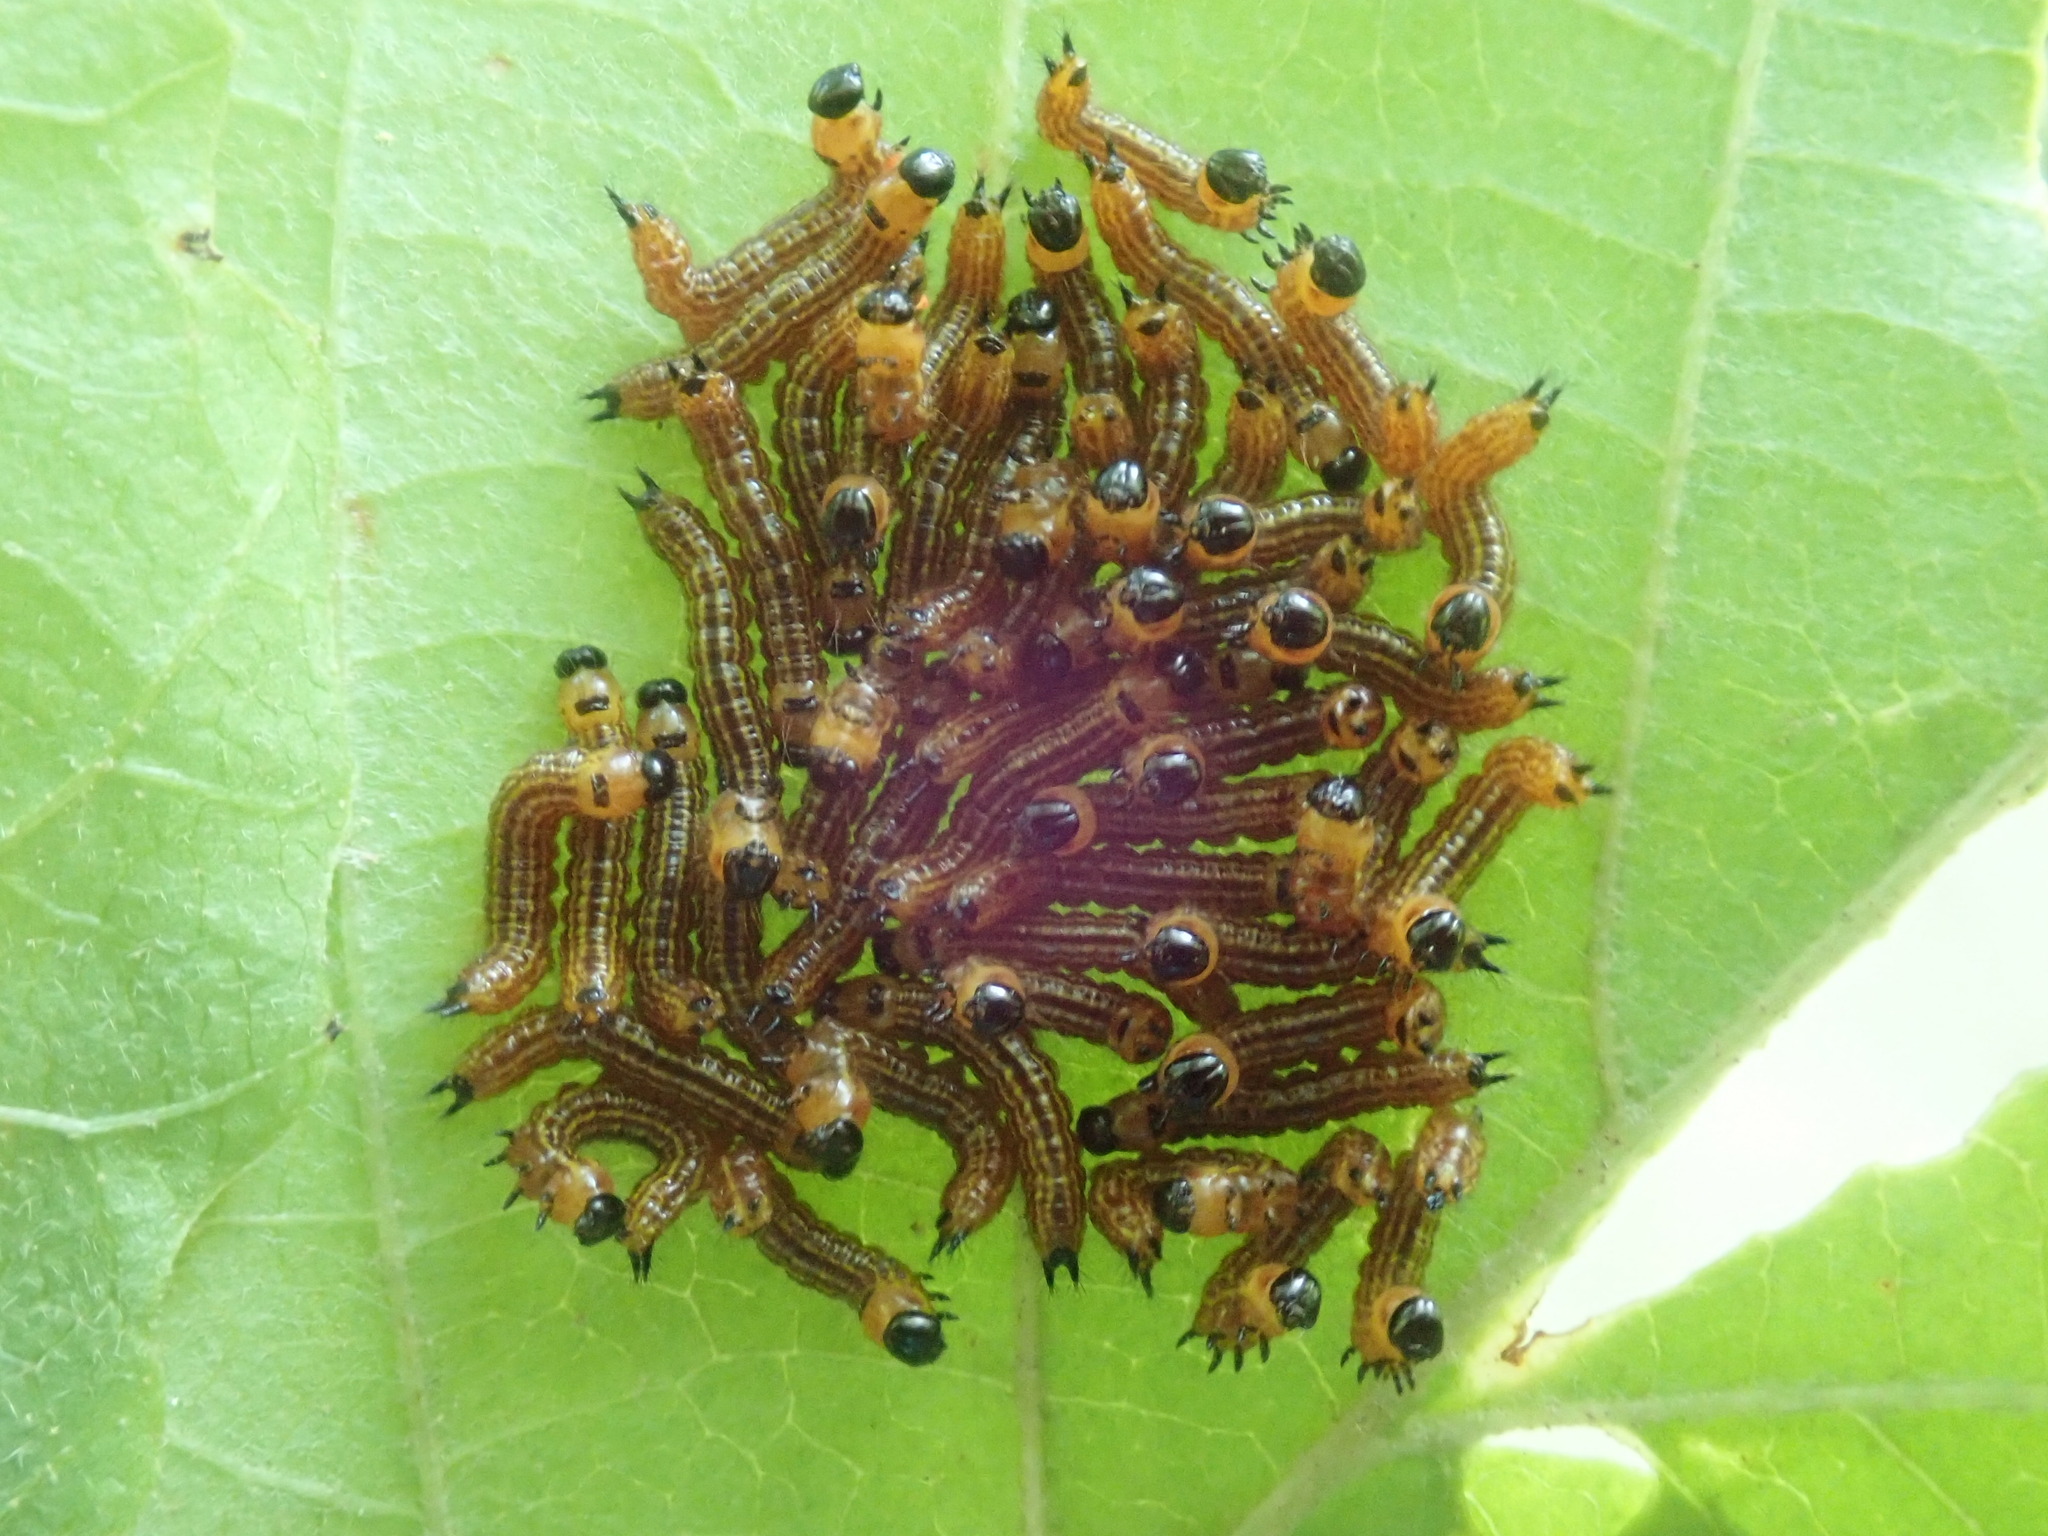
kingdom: Animalia
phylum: Arthropoda
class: Insecta
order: Lepidoptera
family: Notodontidae
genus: Datana
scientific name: Datana
